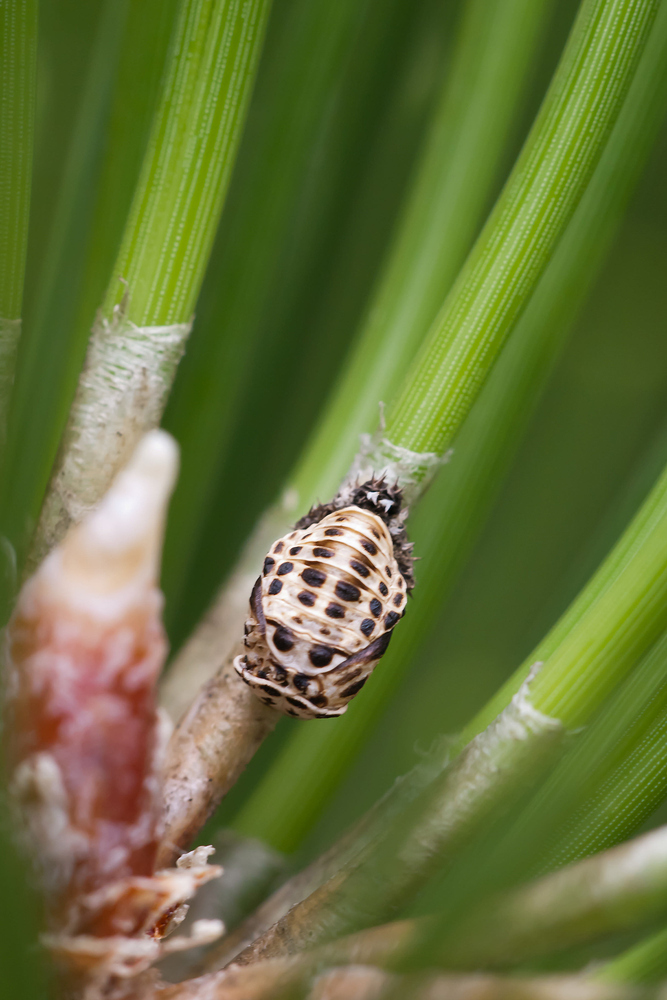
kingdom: Animalia
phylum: Arthropoda
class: Insecta
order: Coleoptera
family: Coccinellidae
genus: Harmonia
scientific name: Harmonia quadripunctata
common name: Cream-streaked ladybird
